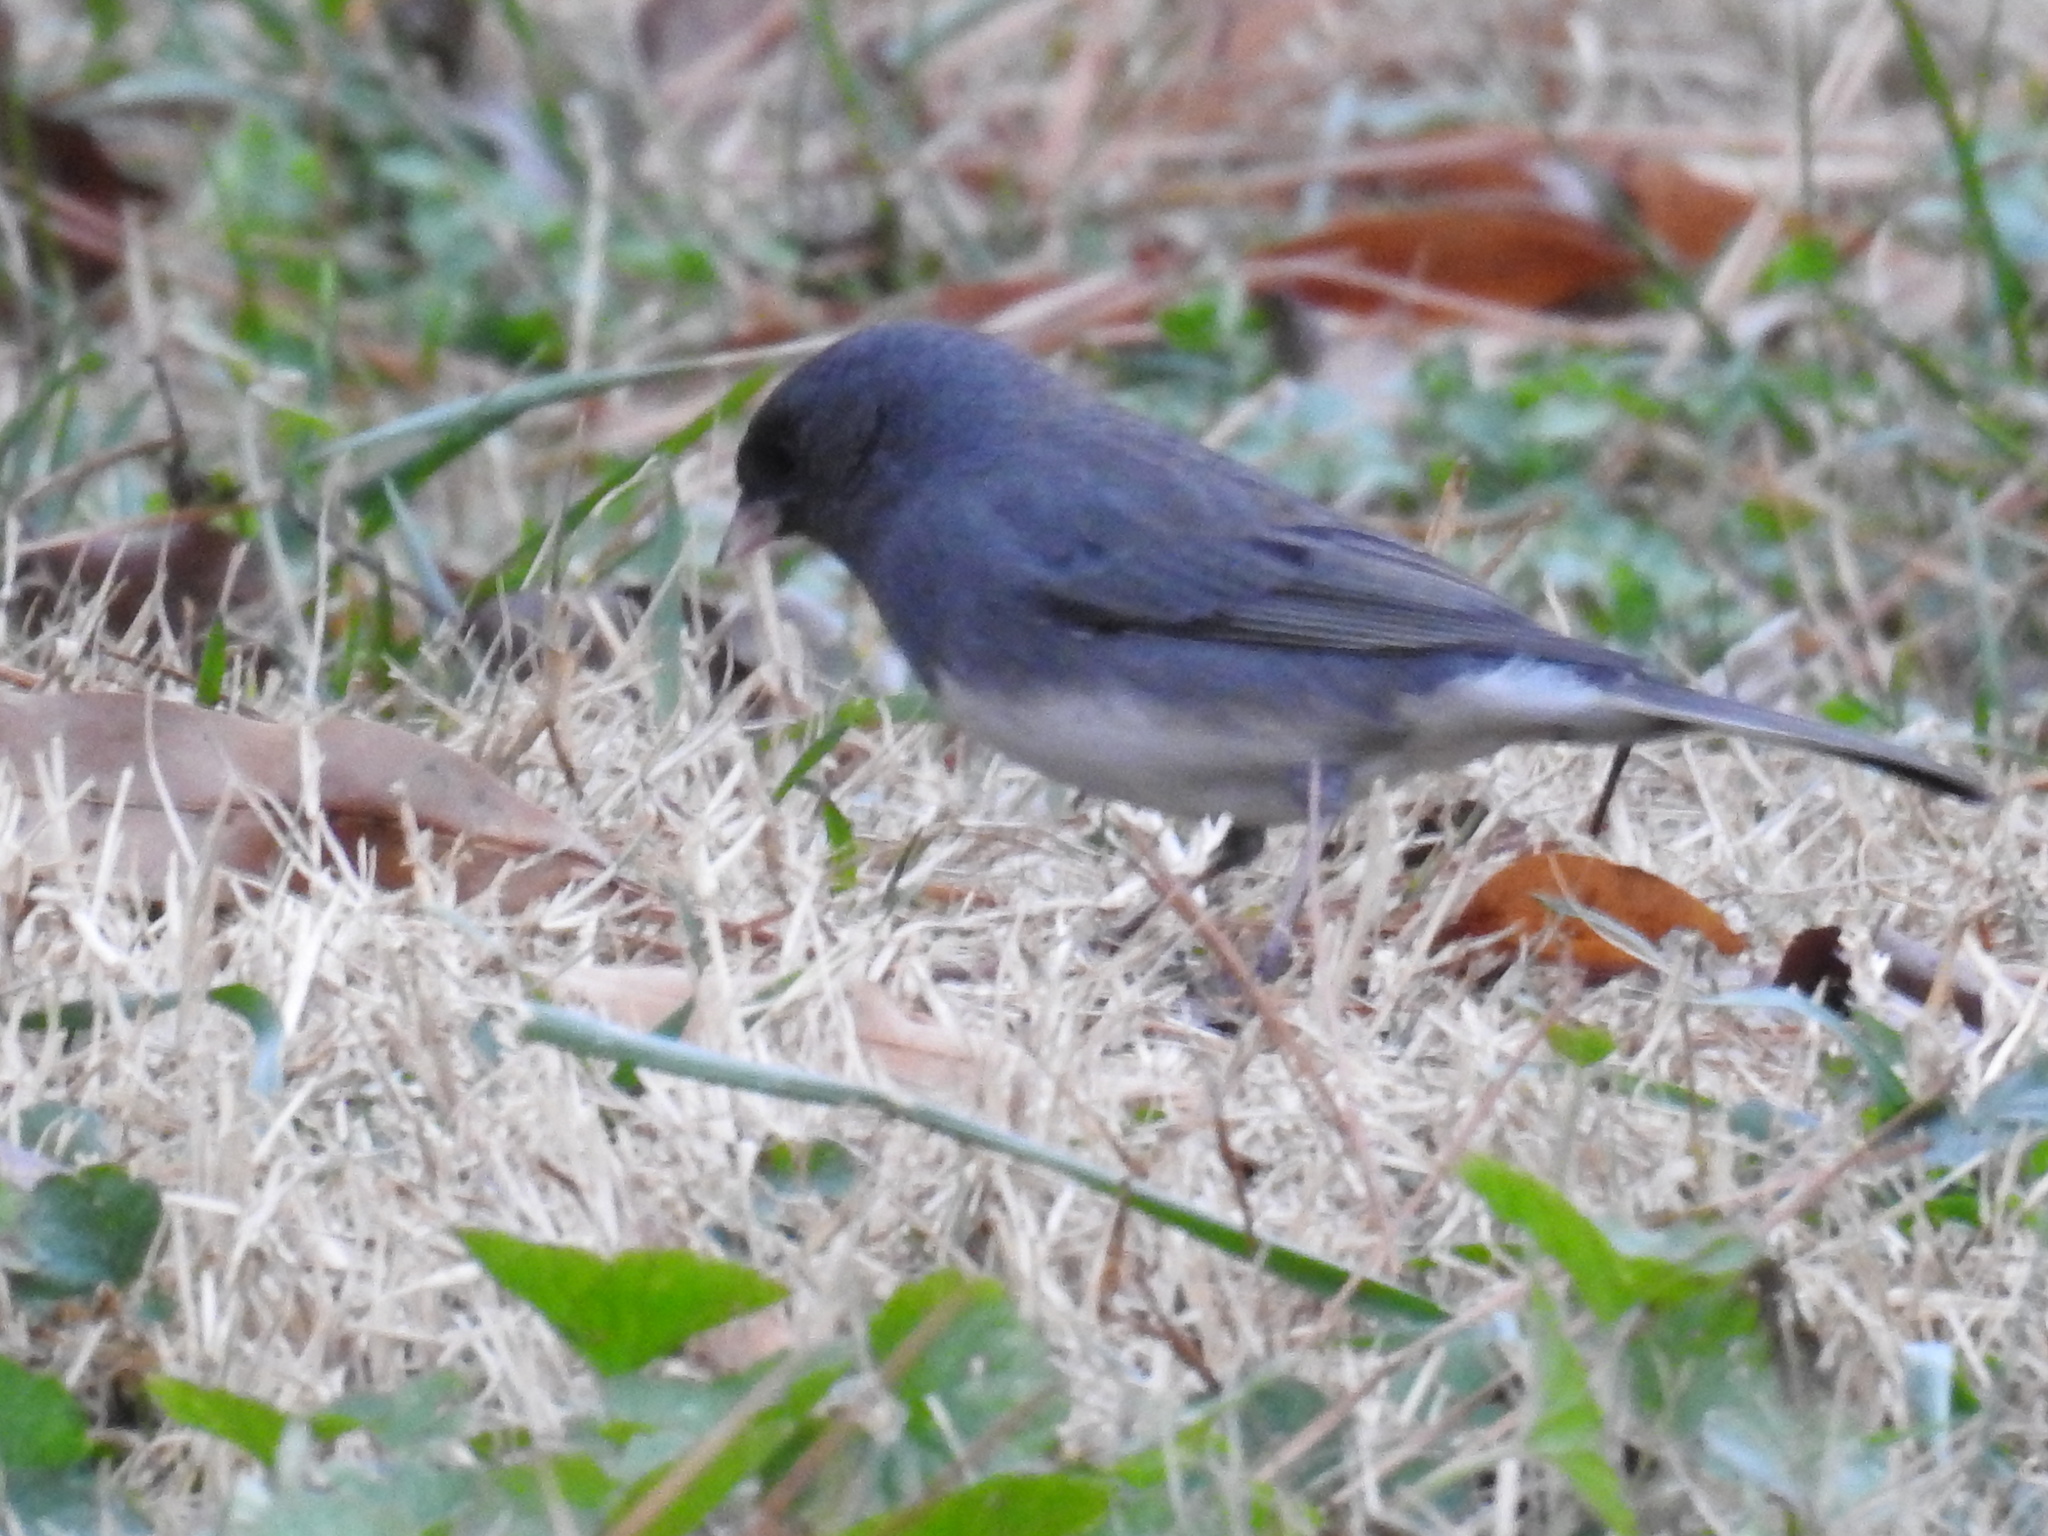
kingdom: Animalia
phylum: Chordata
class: Aves
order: Passeriformes
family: Passerellidae
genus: Junco
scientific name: Junco hyemalis
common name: Dark-eyed junco
